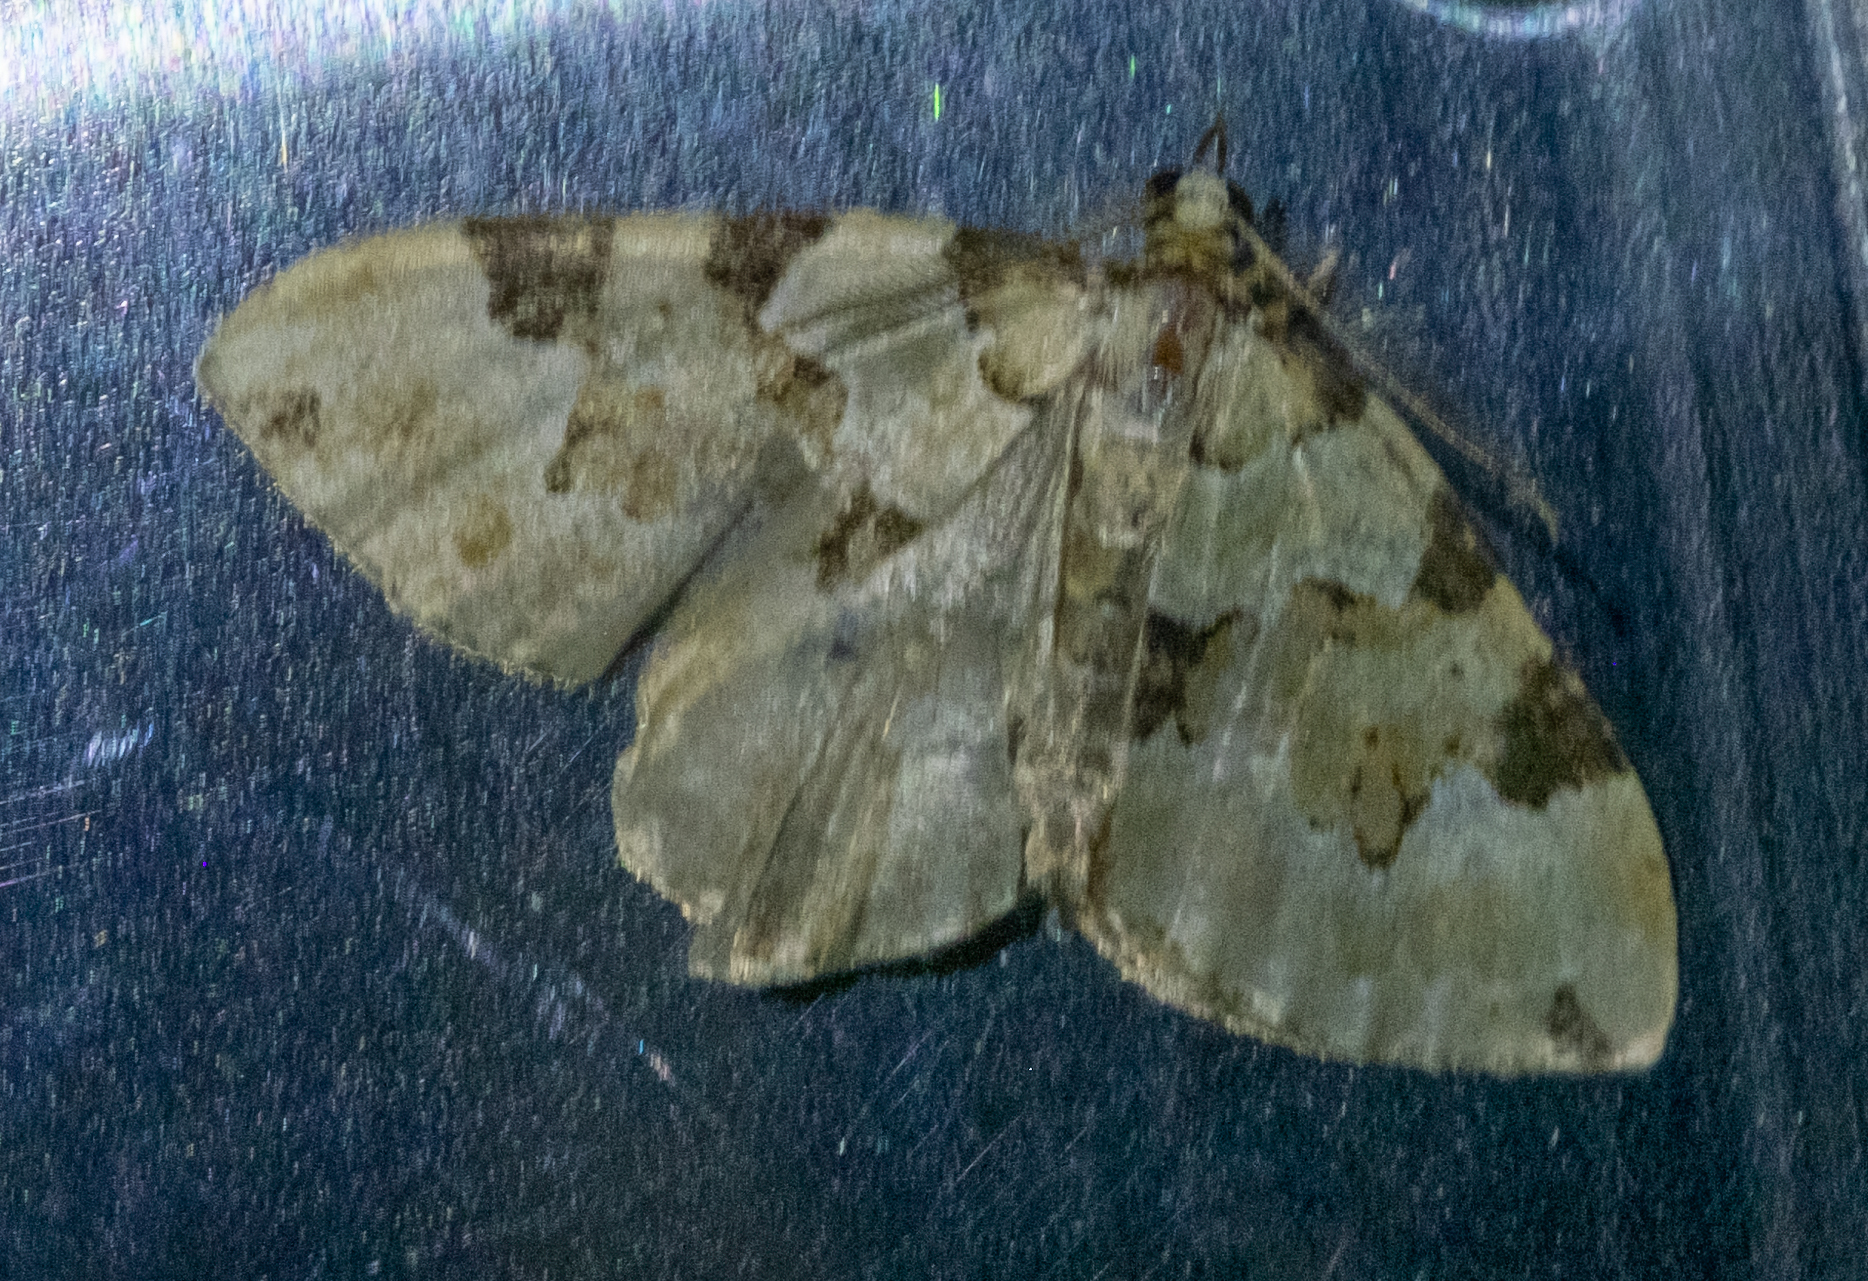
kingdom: Animalia
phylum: Arthropoda
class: Insecta
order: Lepidoptera
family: Geometridae
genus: Colostygia
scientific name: Colostygia pectinataria
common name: Green carpet
